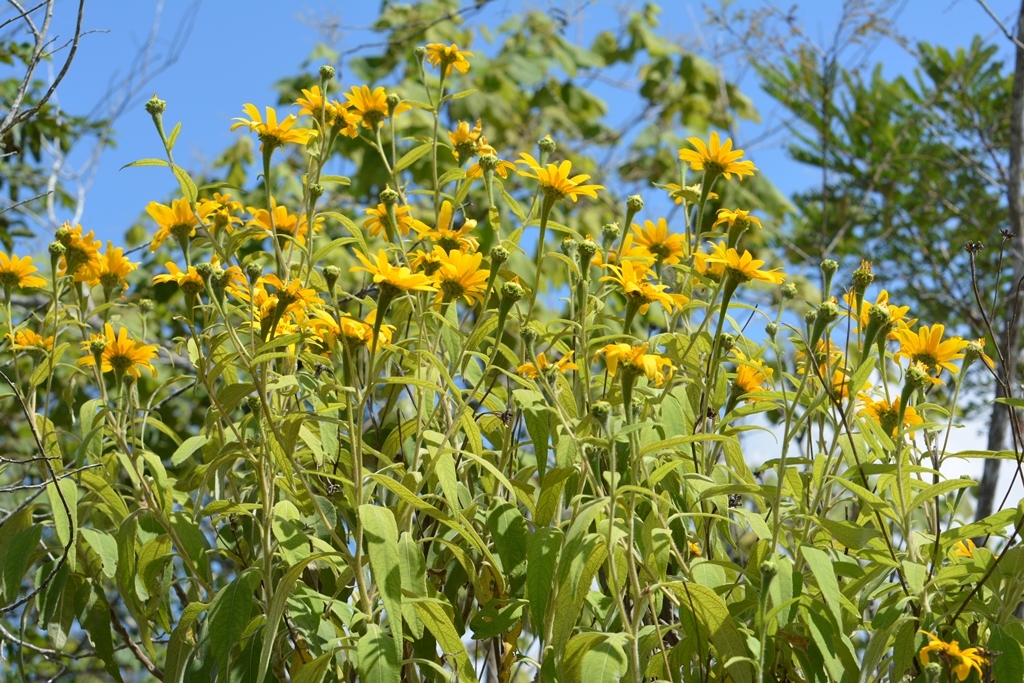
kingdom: Plantae
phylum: Tracheophyta
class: Magnoliopsida
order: Asterales
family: Asteraceae
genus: Verbesina
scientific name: Verbesina chiapensis
